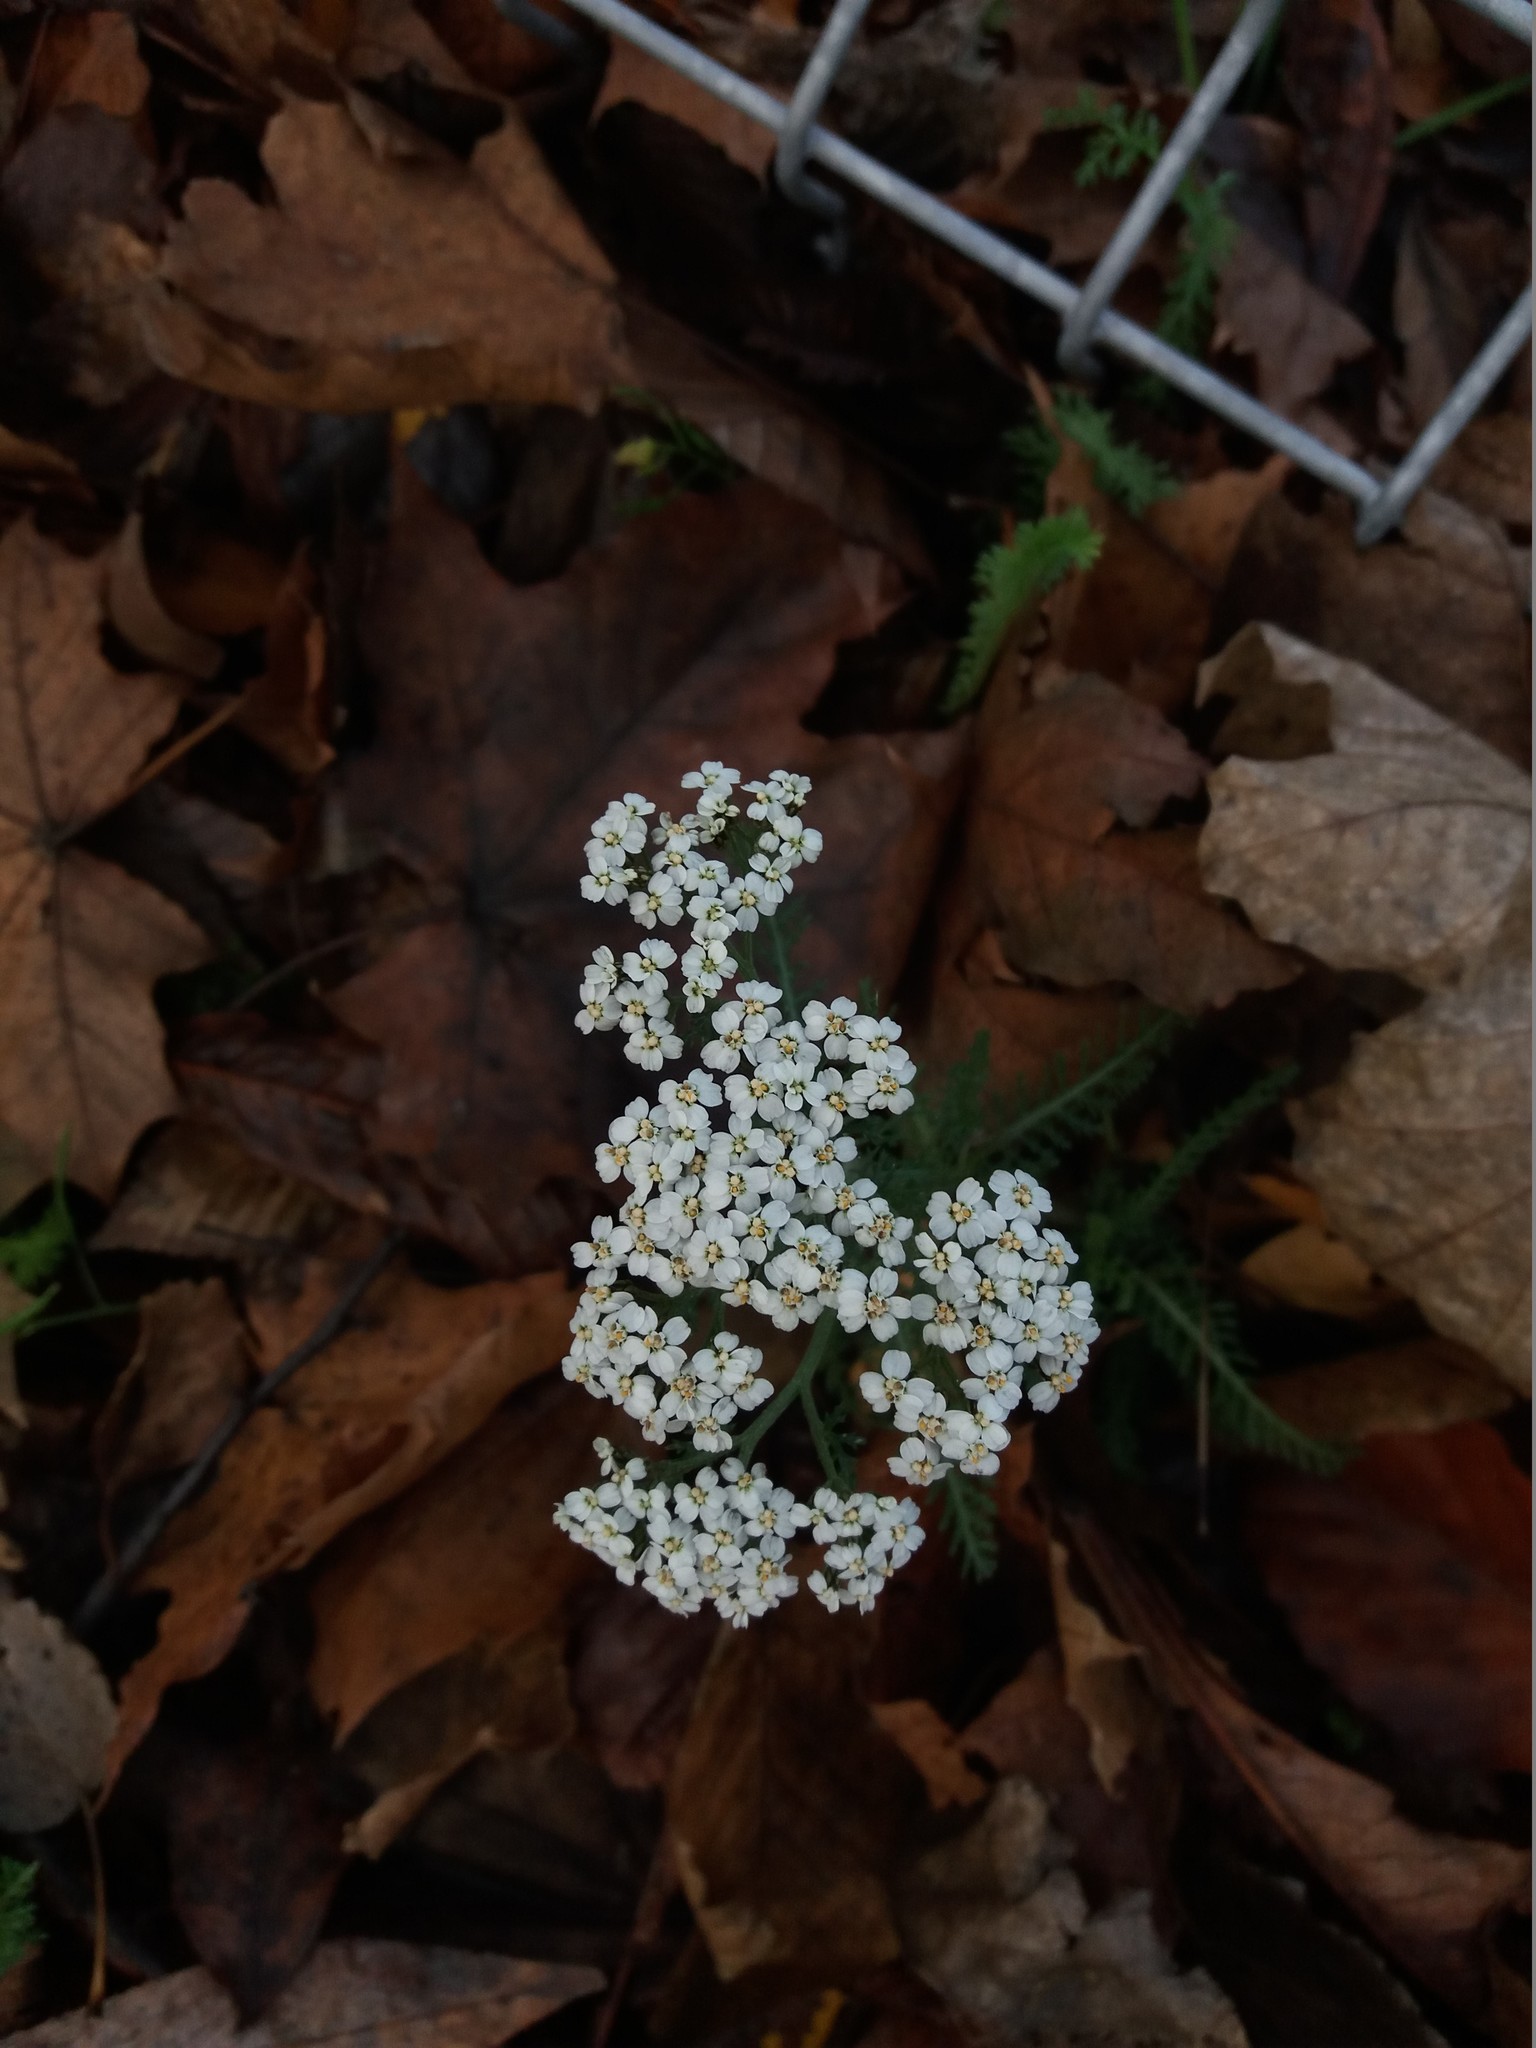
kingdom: Plantae
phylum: Tracheophyta
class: Magnoliopsida
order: Asterales
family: Asteraceae
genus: Achillea
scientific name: Achillea millefolium
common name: Yarrow
